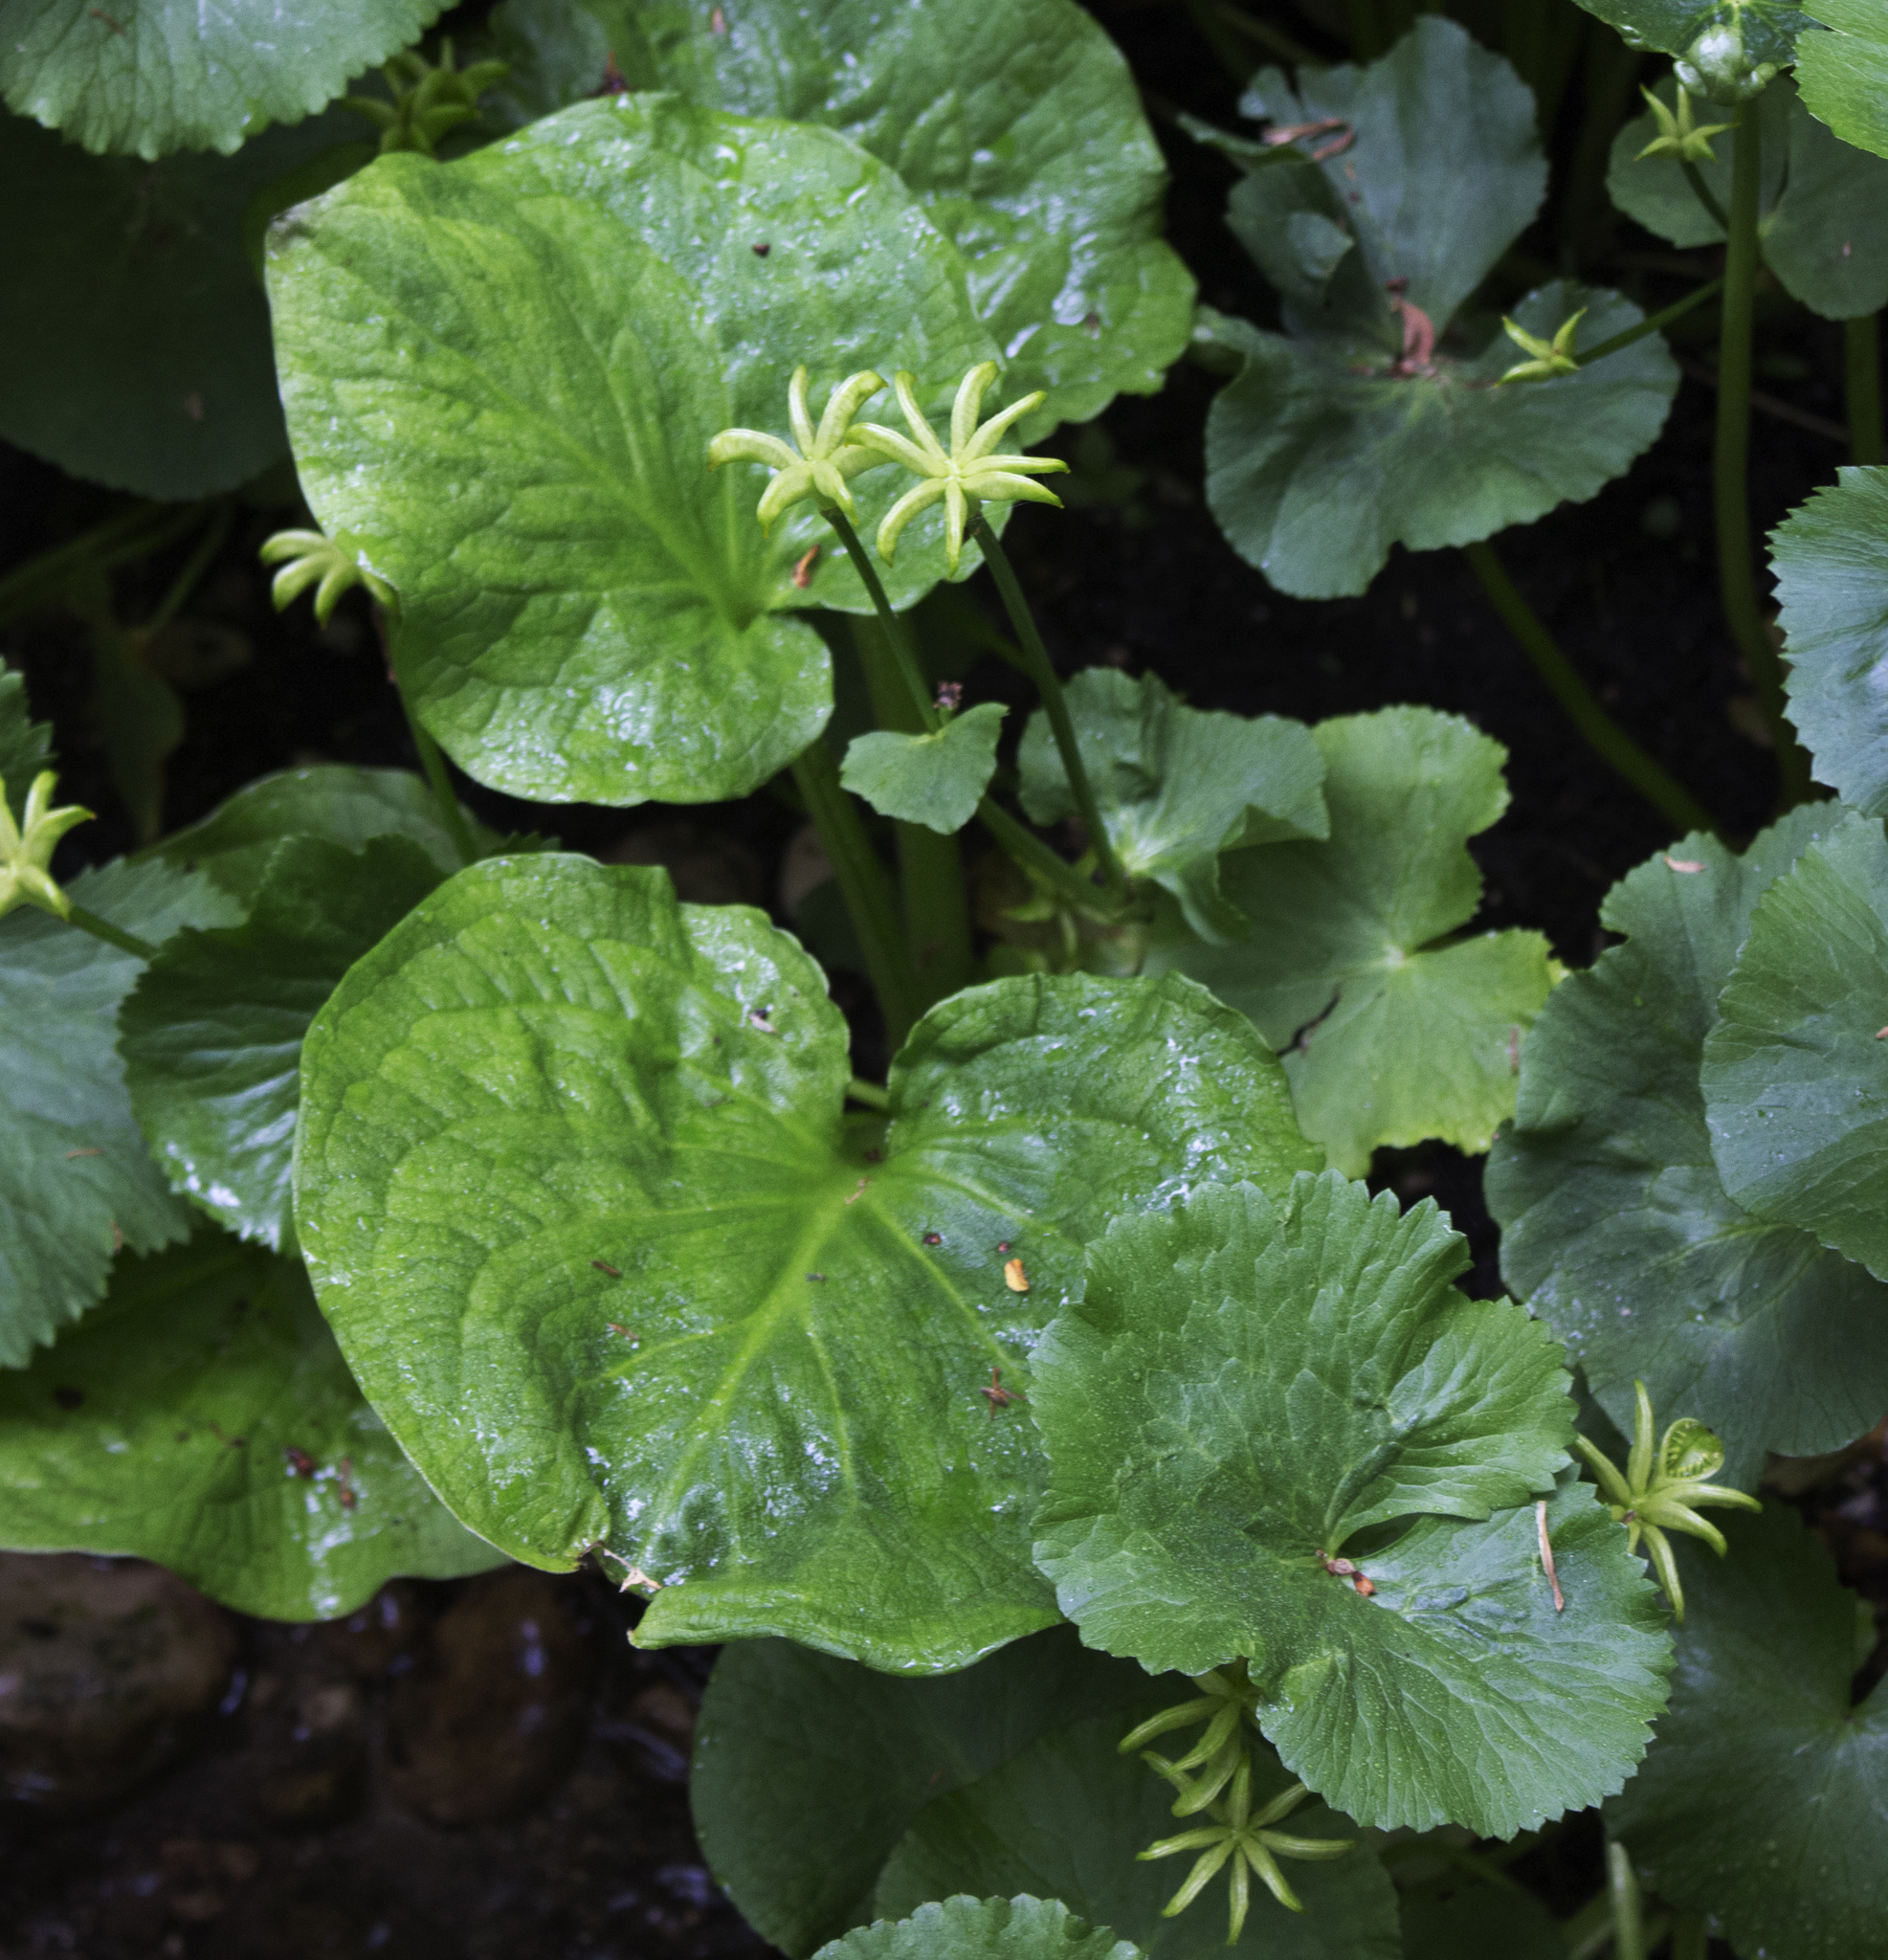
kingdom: Plantae
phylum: Tracheophyta
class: Magnoliopsida
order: Ranunculales
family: Ranunculaceae
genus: Caltha
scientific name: Caltha palustris
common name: Marsh marigold
